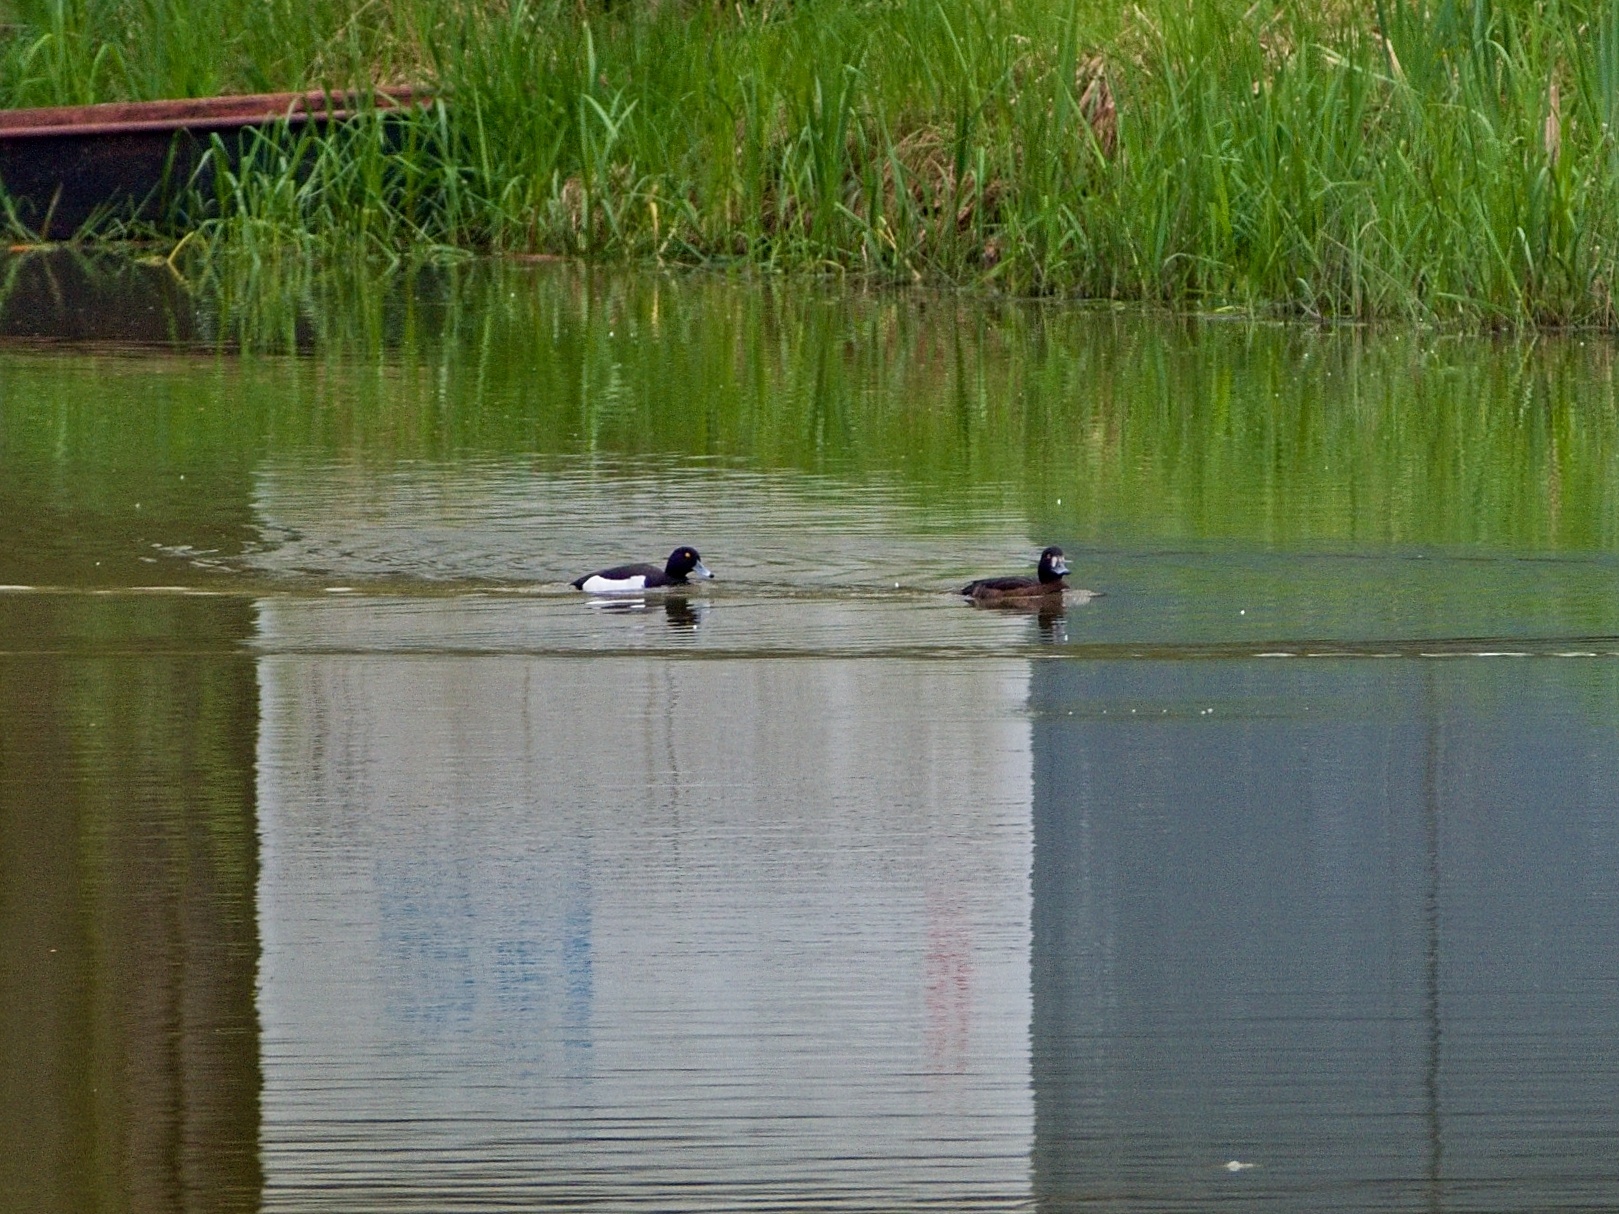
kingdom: Animalia
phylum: Chordata
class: Aves
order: Anseriformes
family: Anatidae
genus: Aythya
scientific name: Aythya fuligula
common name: Tufted duck
